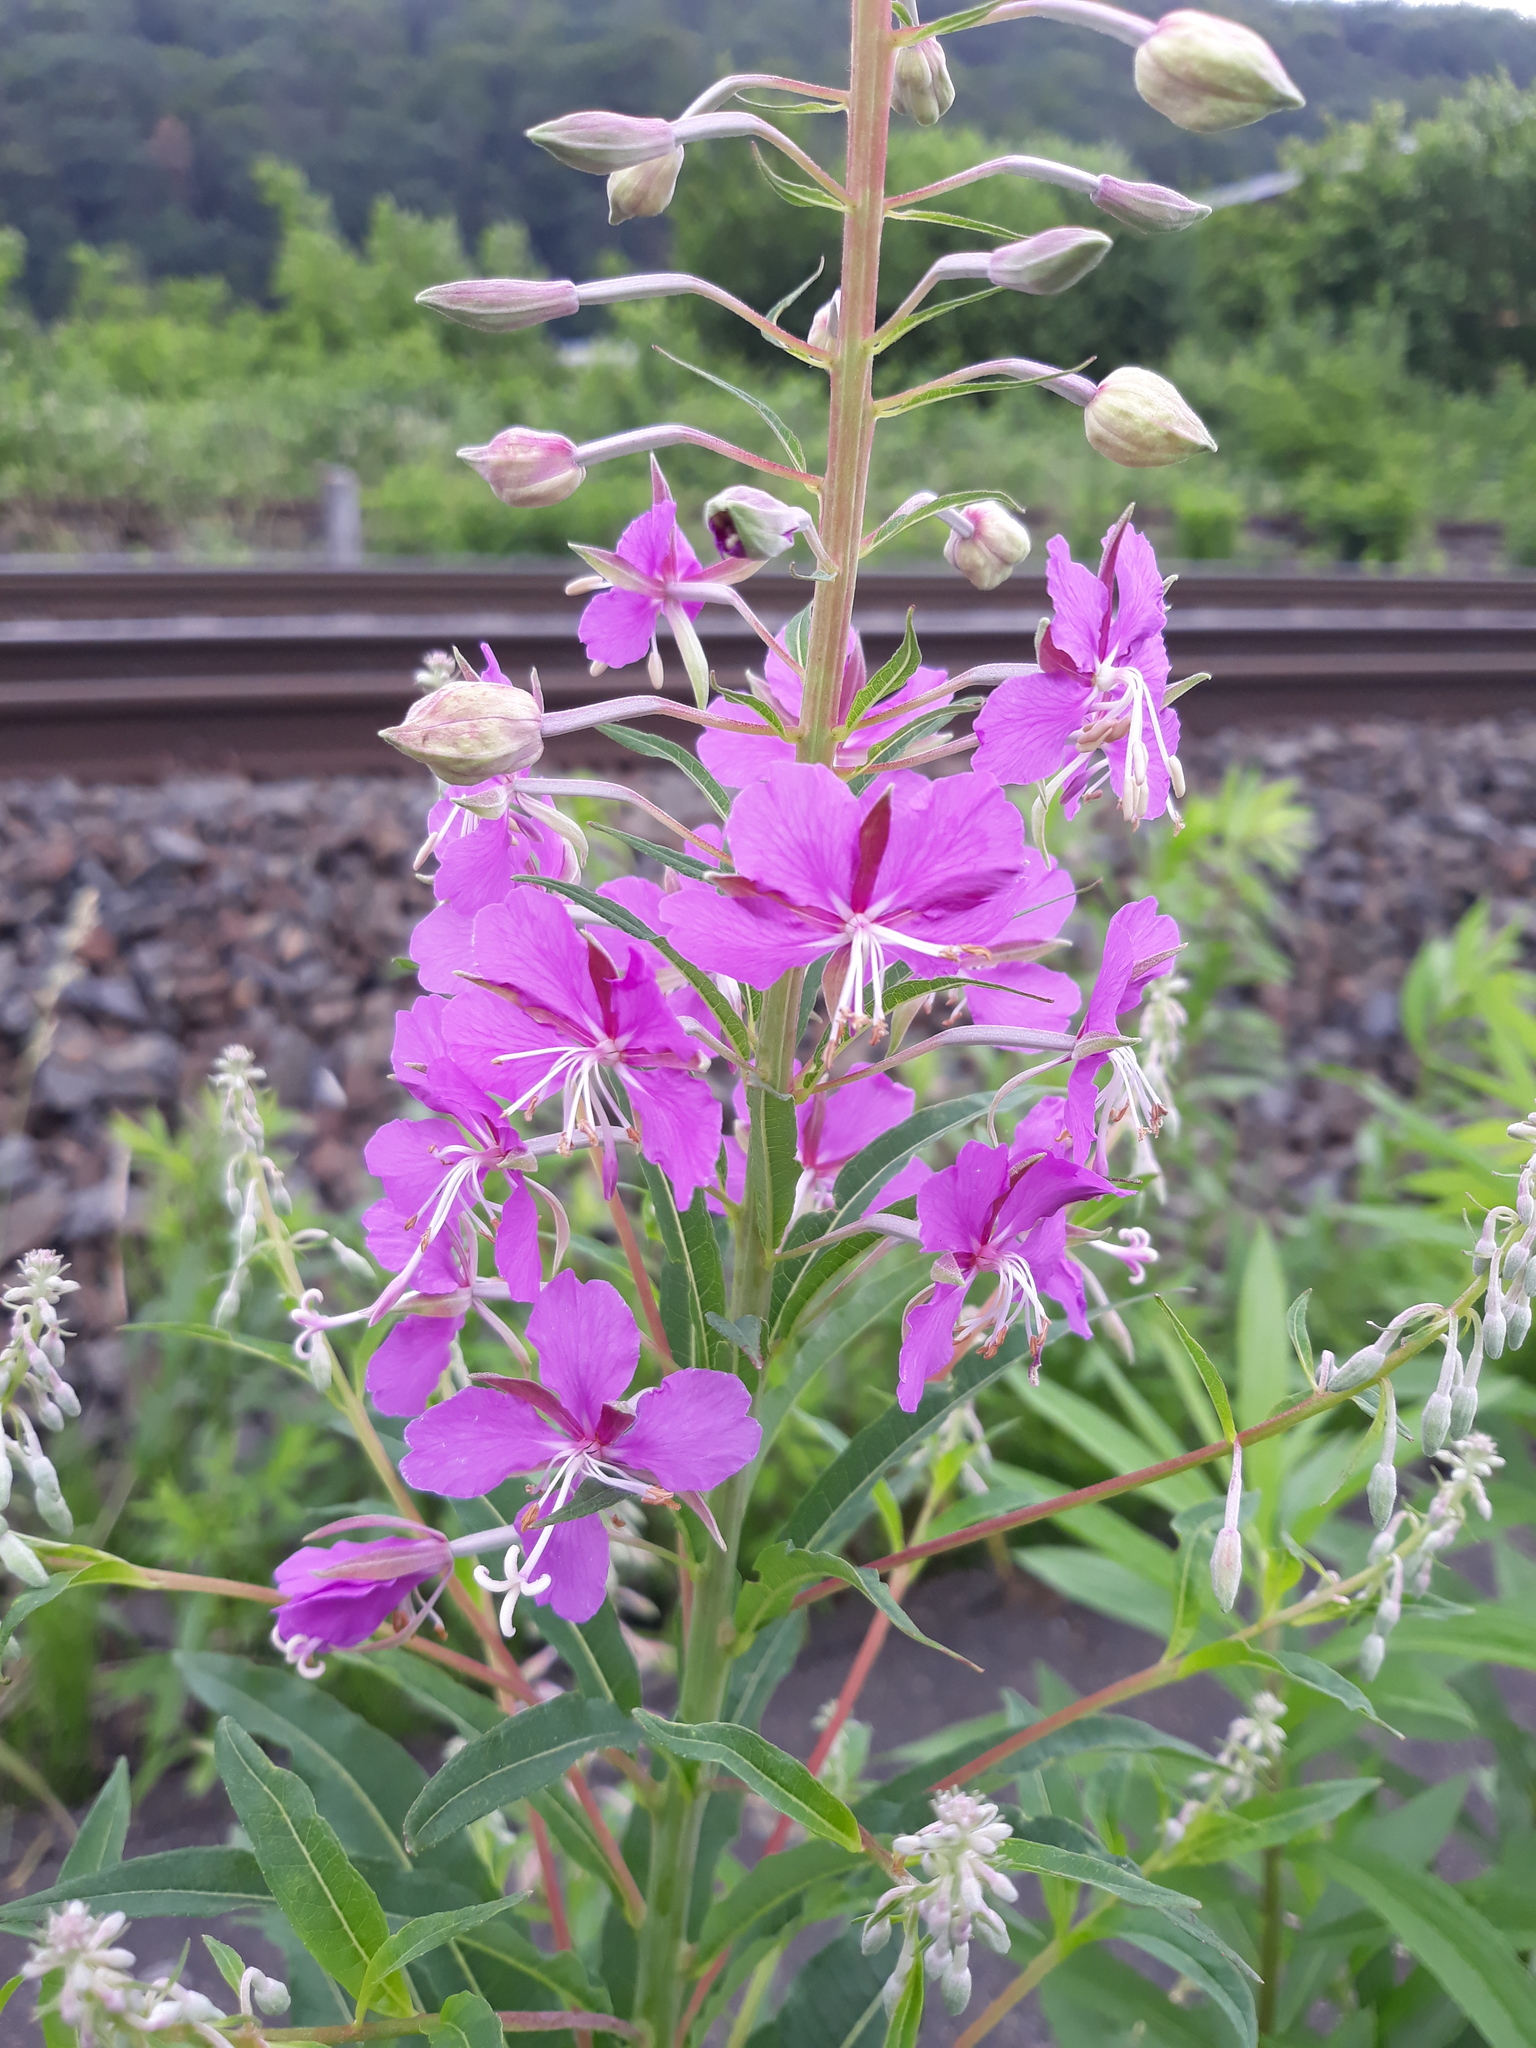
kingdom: Plantae
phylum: Tracheophyta
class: Magnoliopsida
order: Myrtales
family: Onagraceae
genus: Chamaenerion
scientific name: Chamaenerion angustifolium
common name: Fireweed
